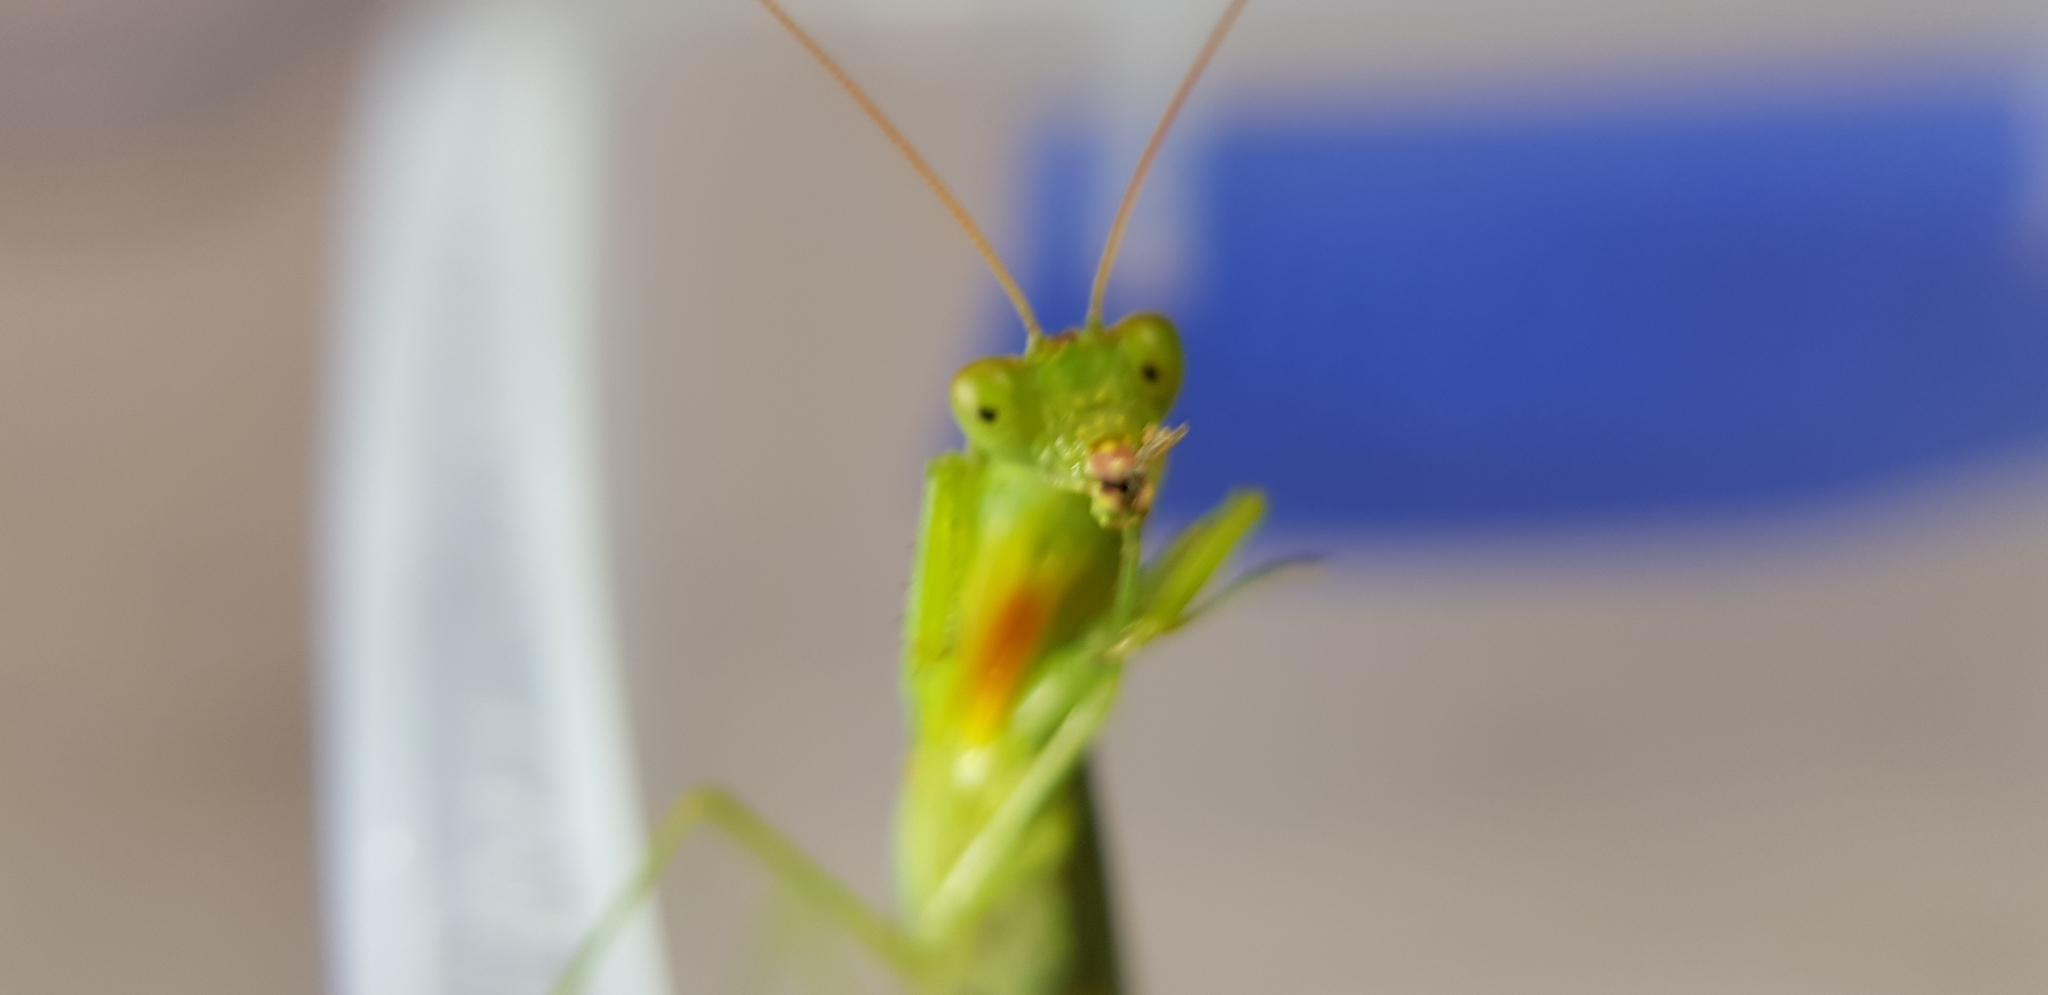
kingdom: Animalia
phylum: Arthropoda
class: Insecta
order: Mantodea
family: Mantidae
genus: Orthodera
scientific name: Orthodera ministralis
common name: Mantis
